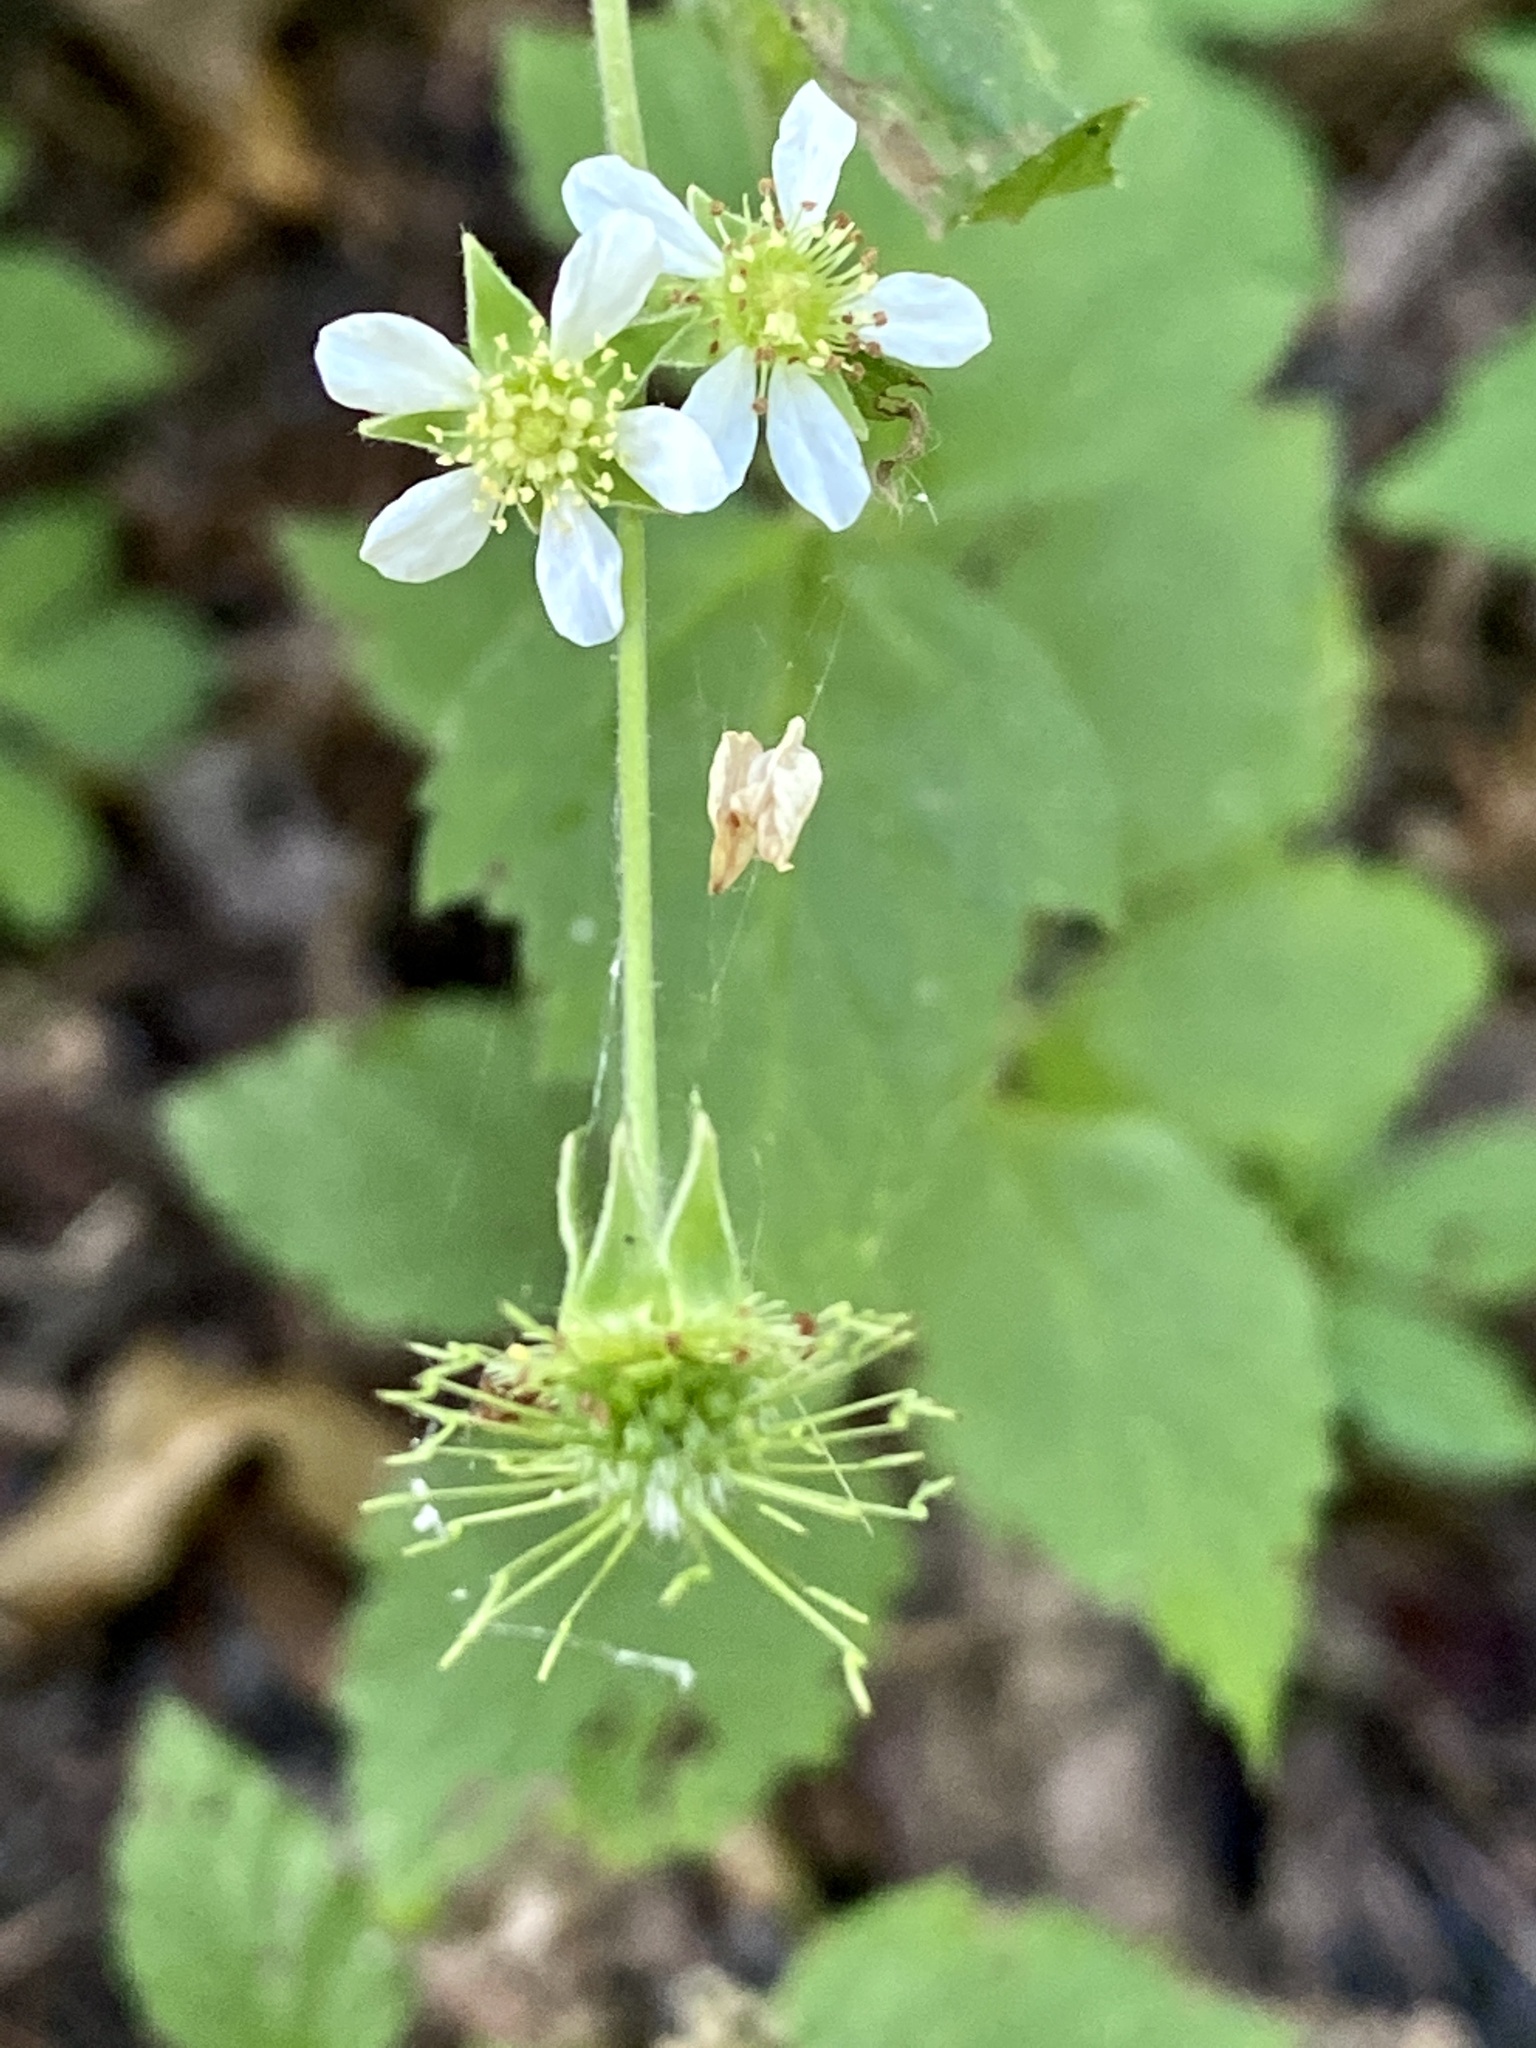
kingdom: Plantae
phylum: Tracheophyta
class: Magnoliopsida
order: Rosales
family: Rosaceae
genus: Geum
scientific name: Geum canadense
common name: White avens
